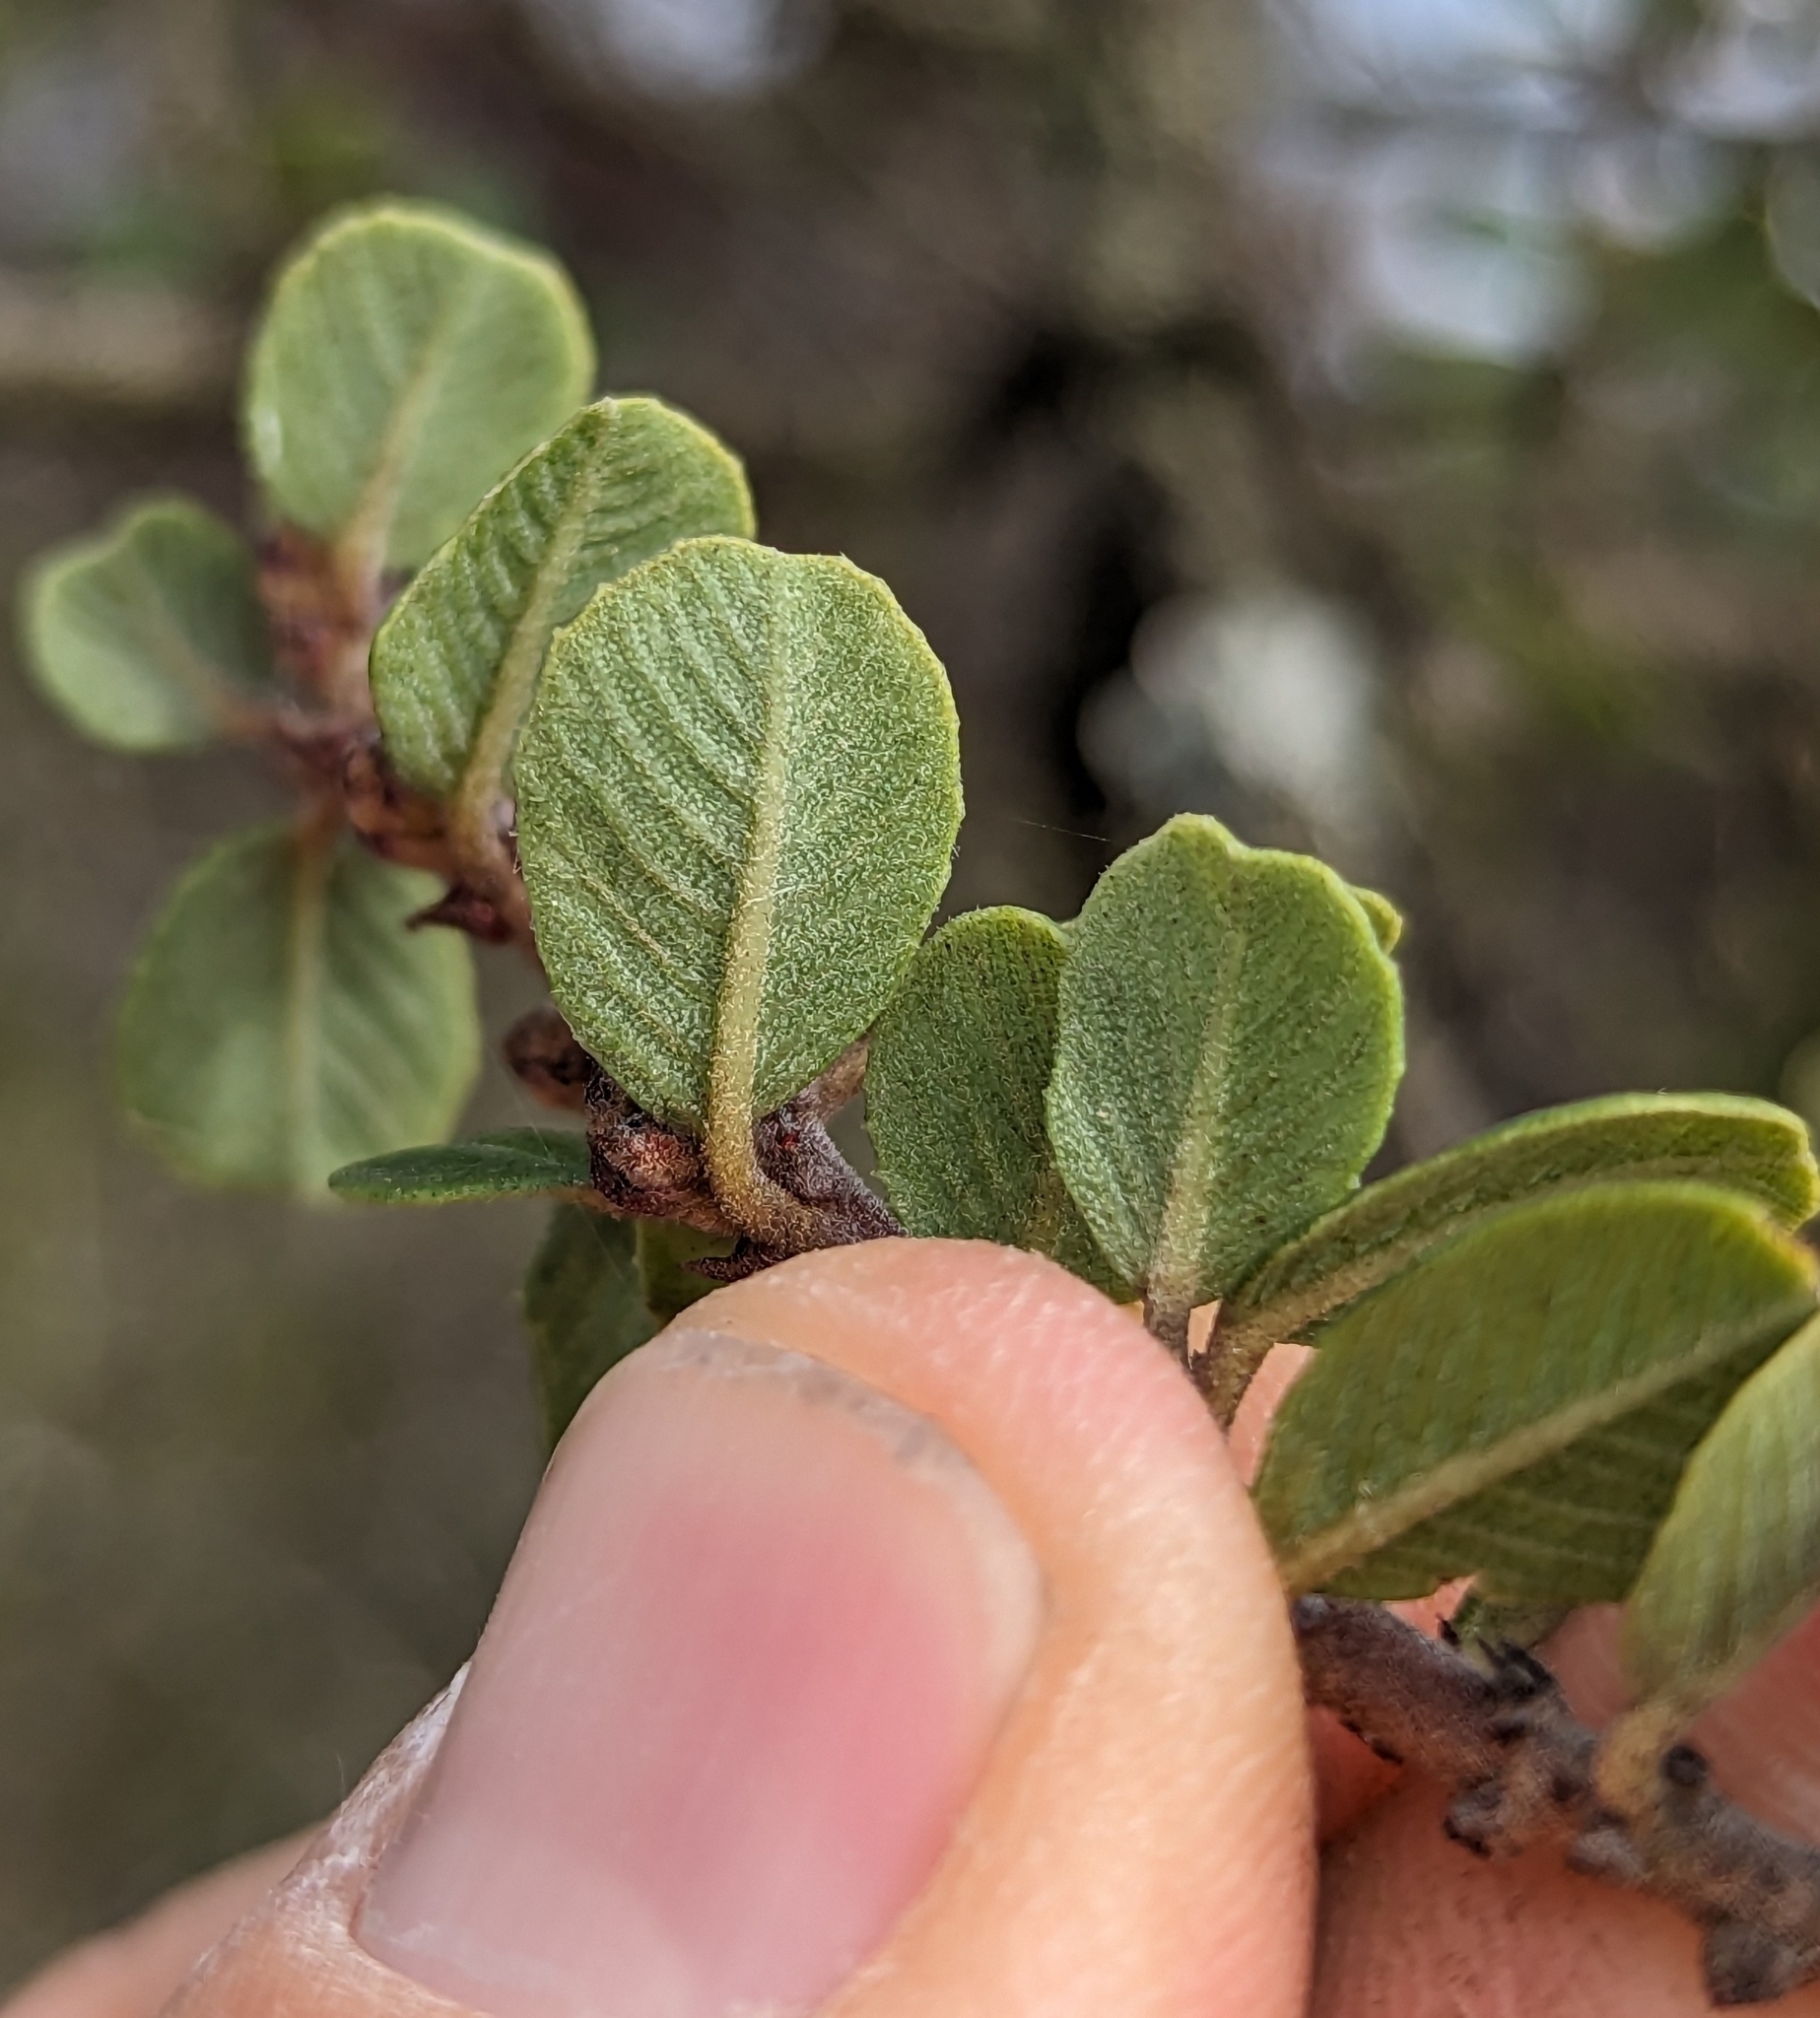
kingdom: Plantae
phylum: Tracheophyta
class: Magnoliopsida
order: Rosales
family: Rhamnaceae
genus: Ceanothus
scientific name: Ceanothus verrucosus
